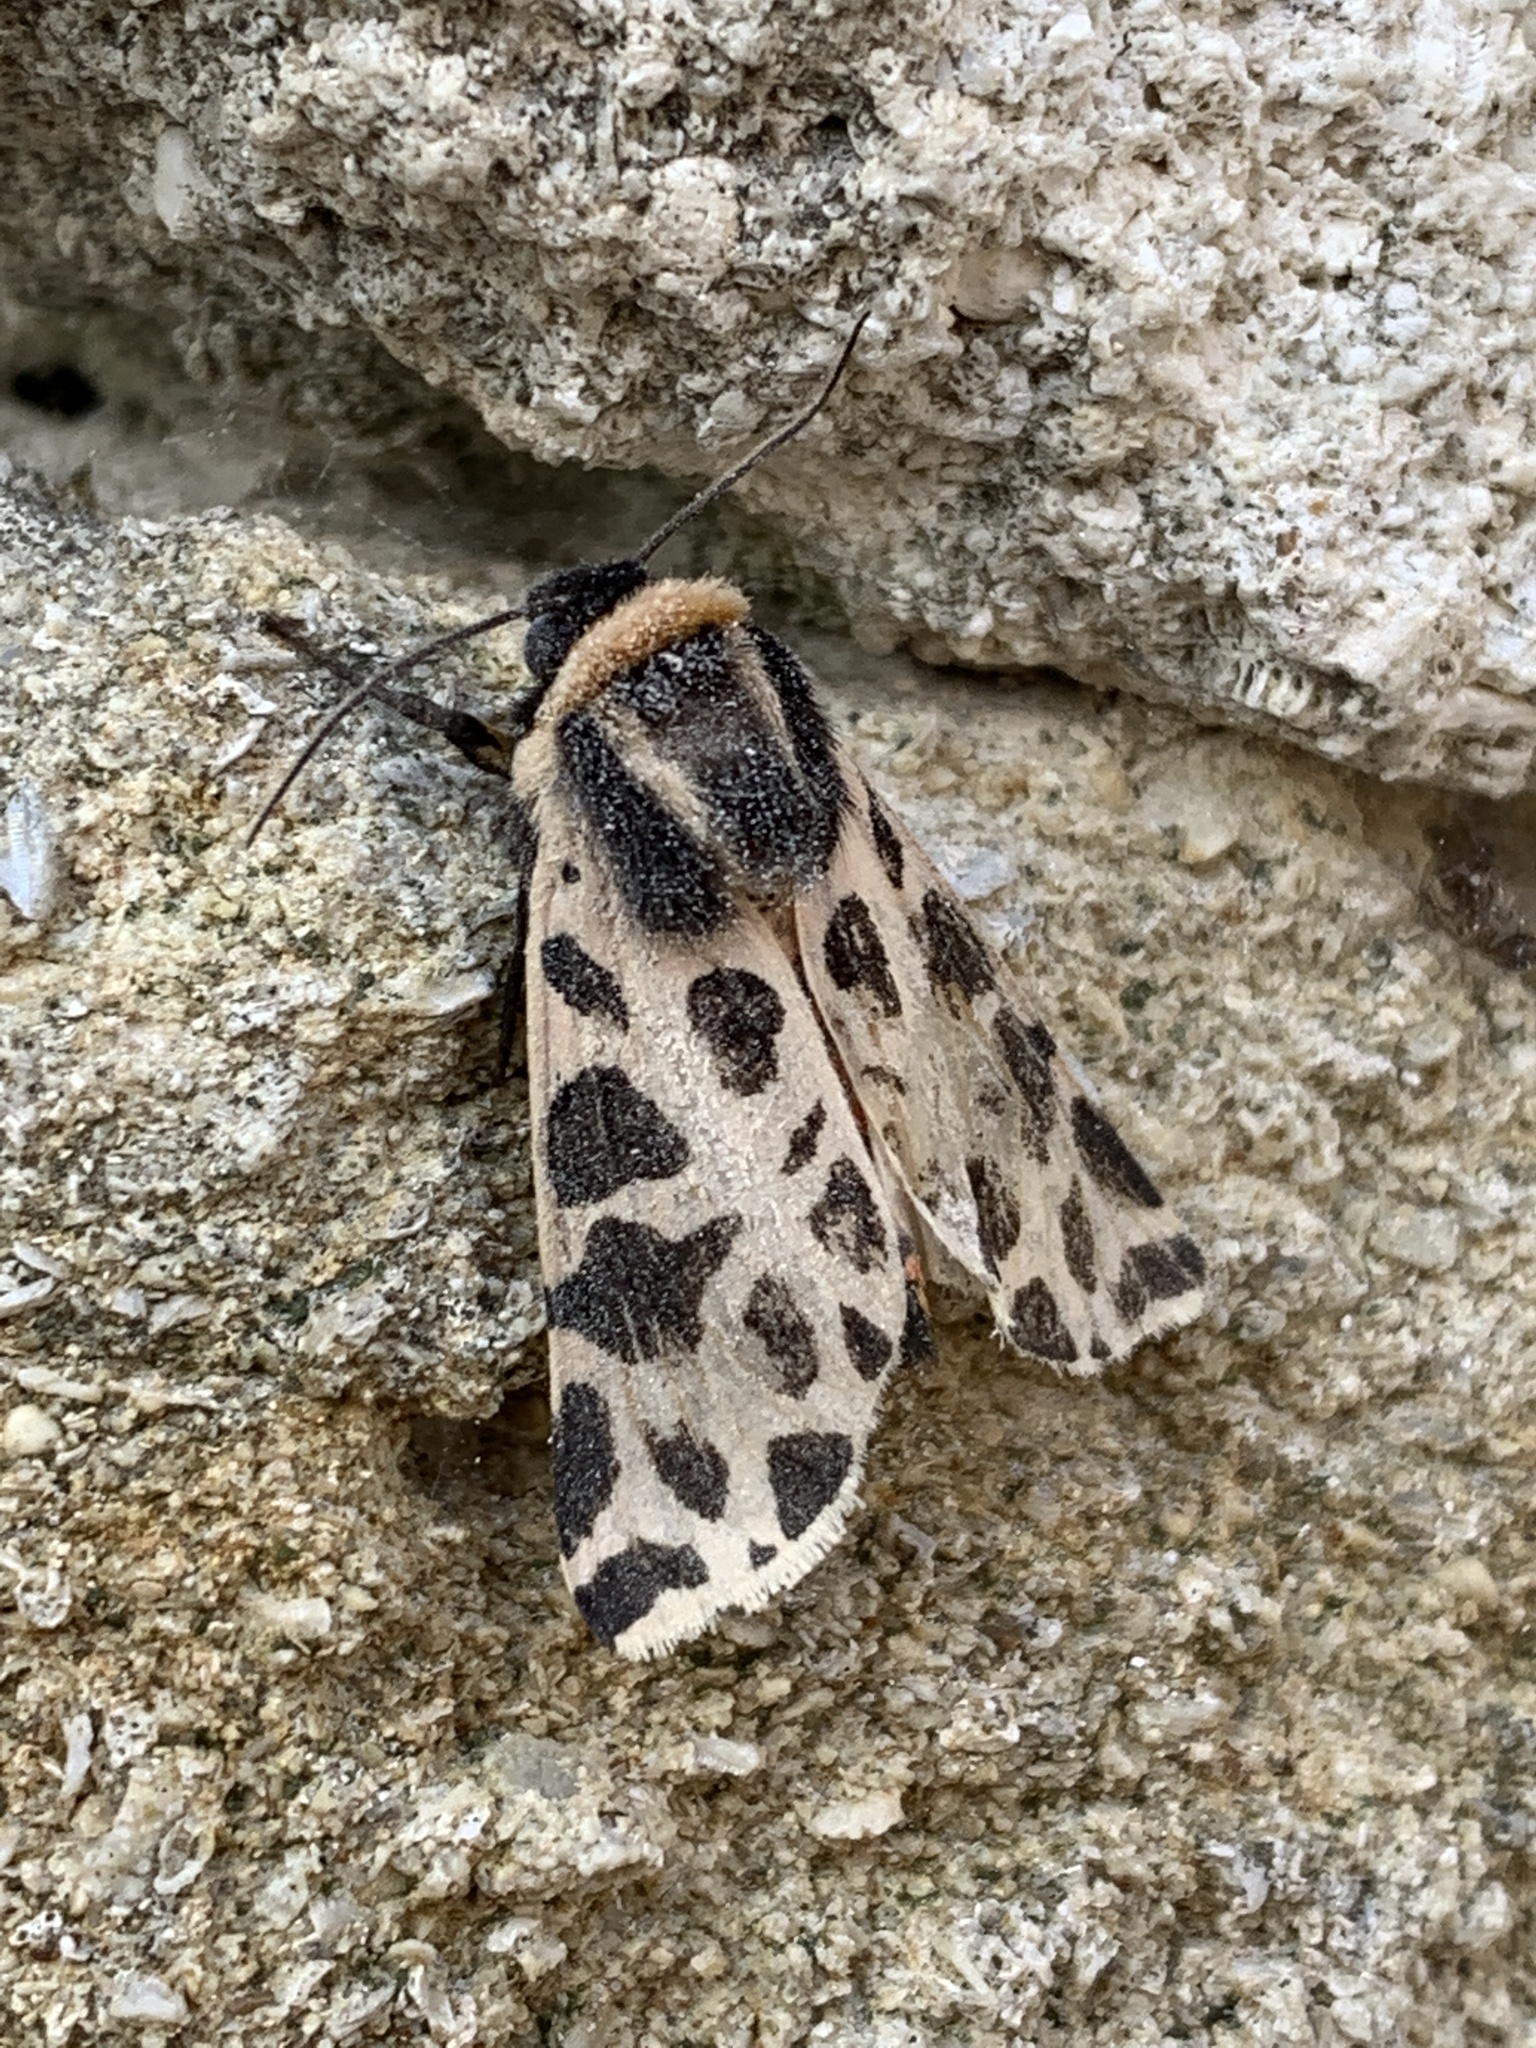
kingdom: Animalia
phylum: Arthropoda
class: Insecta
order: Lepidoptera
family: Erebidae
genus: Cymbalophora
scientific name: Cymbalophora pudica
